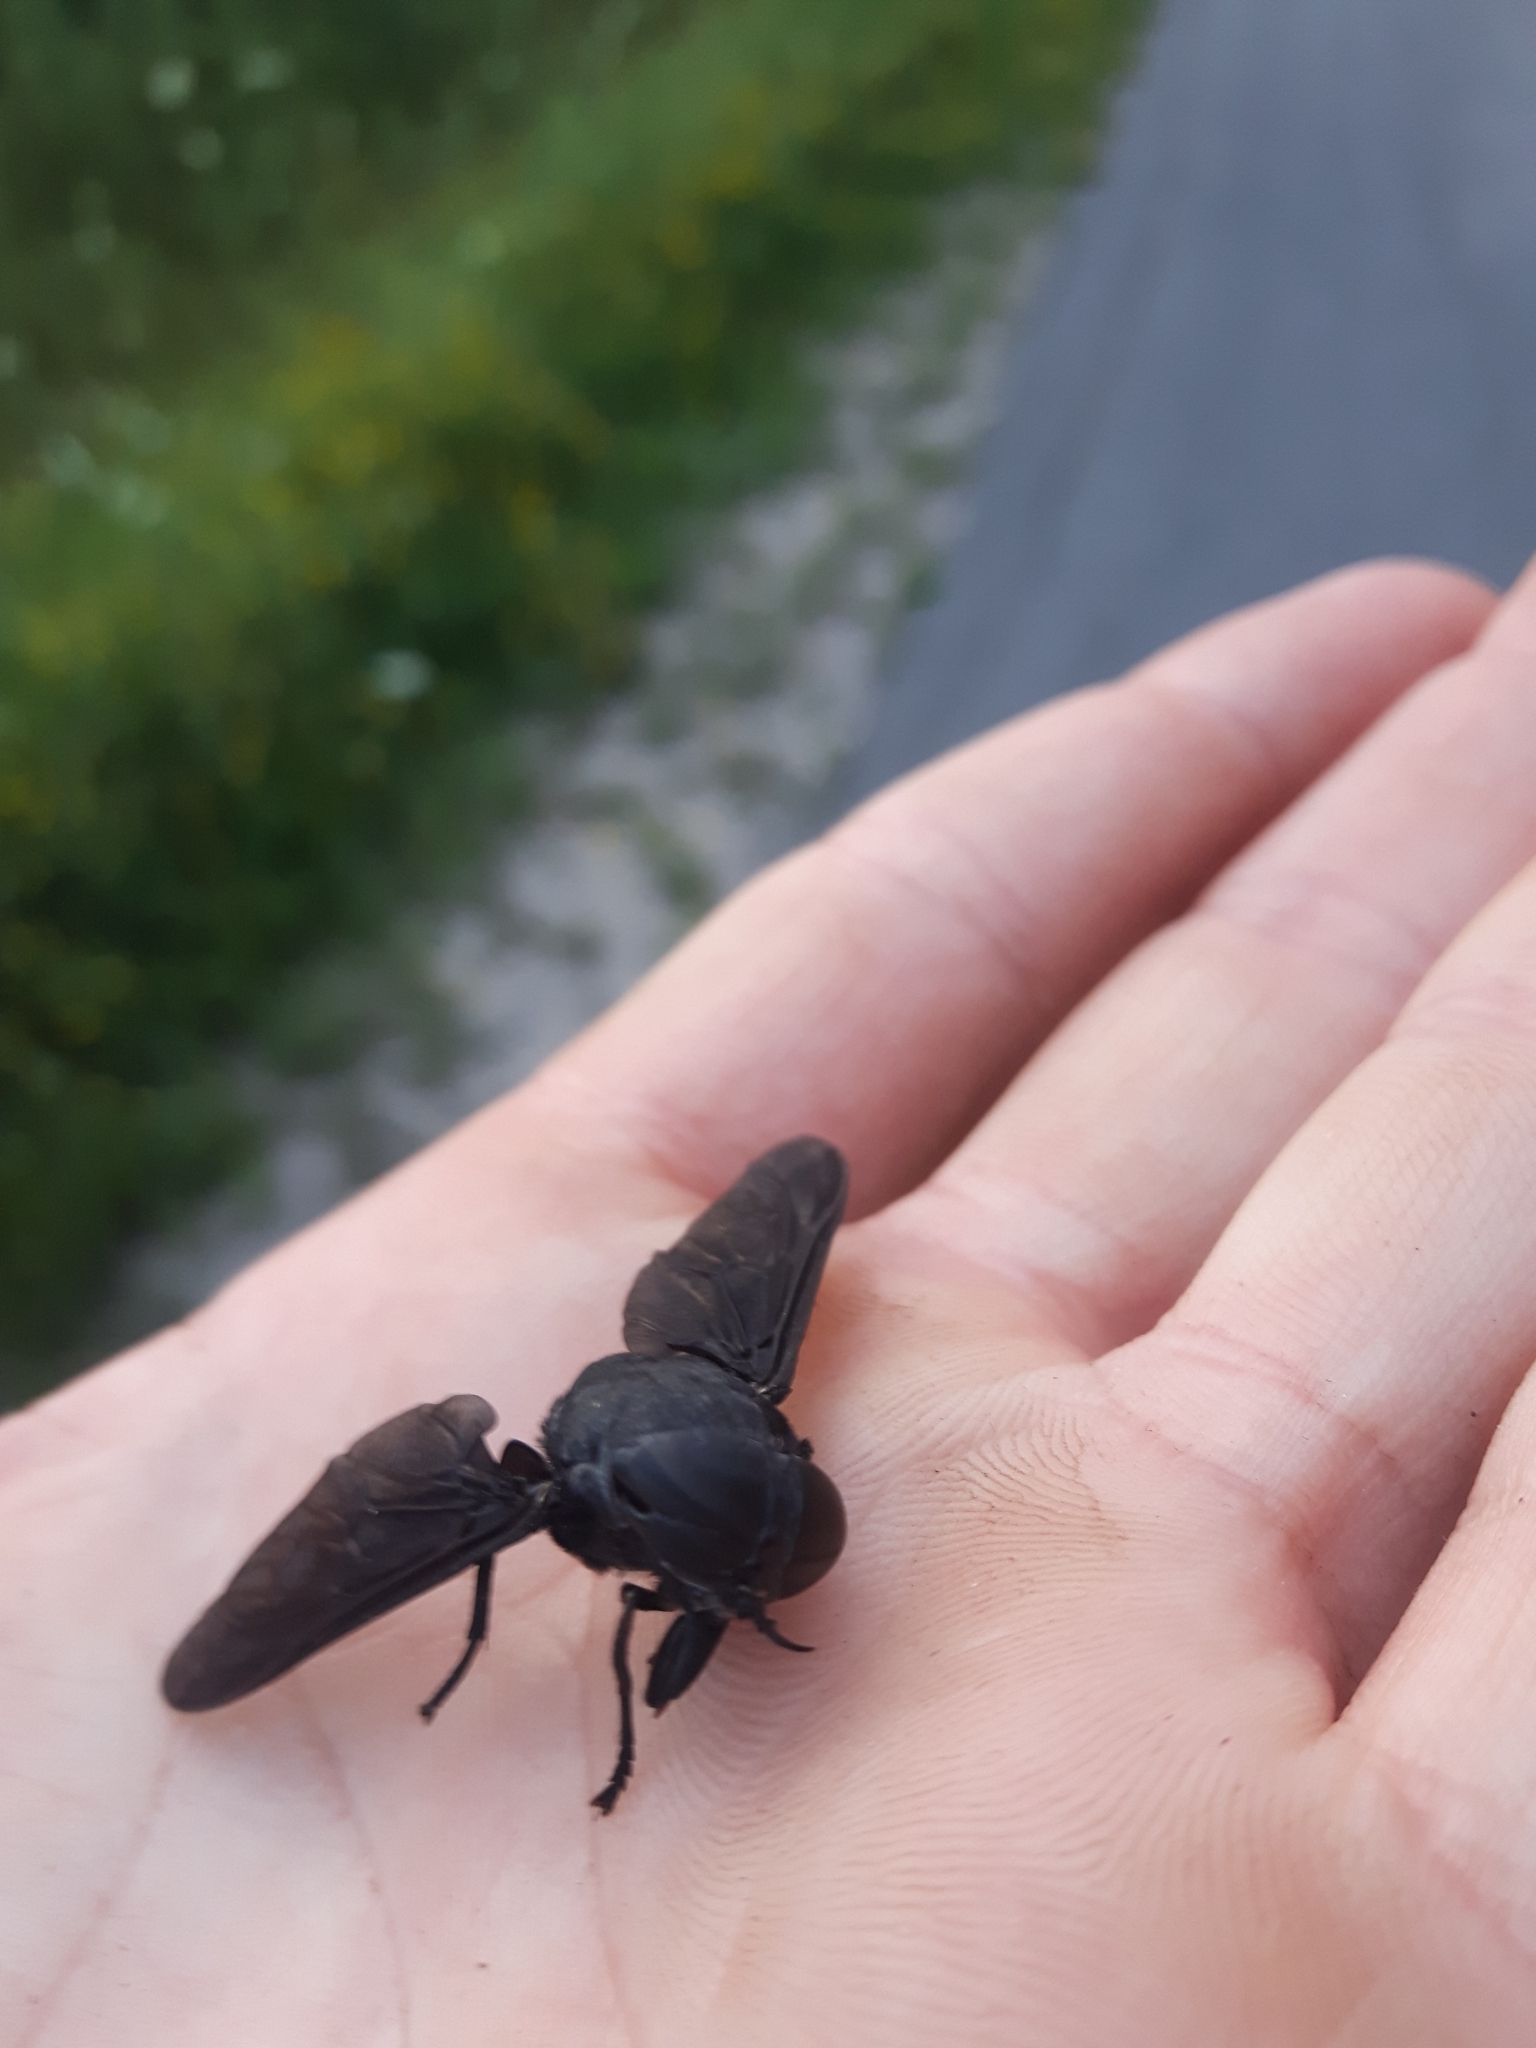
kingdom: Animalia
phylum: Arthropoda
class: Insecta
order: Diptera
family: Tabanidae
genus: Tabanus
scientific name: Tabanus atratus
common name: Black horse fly
